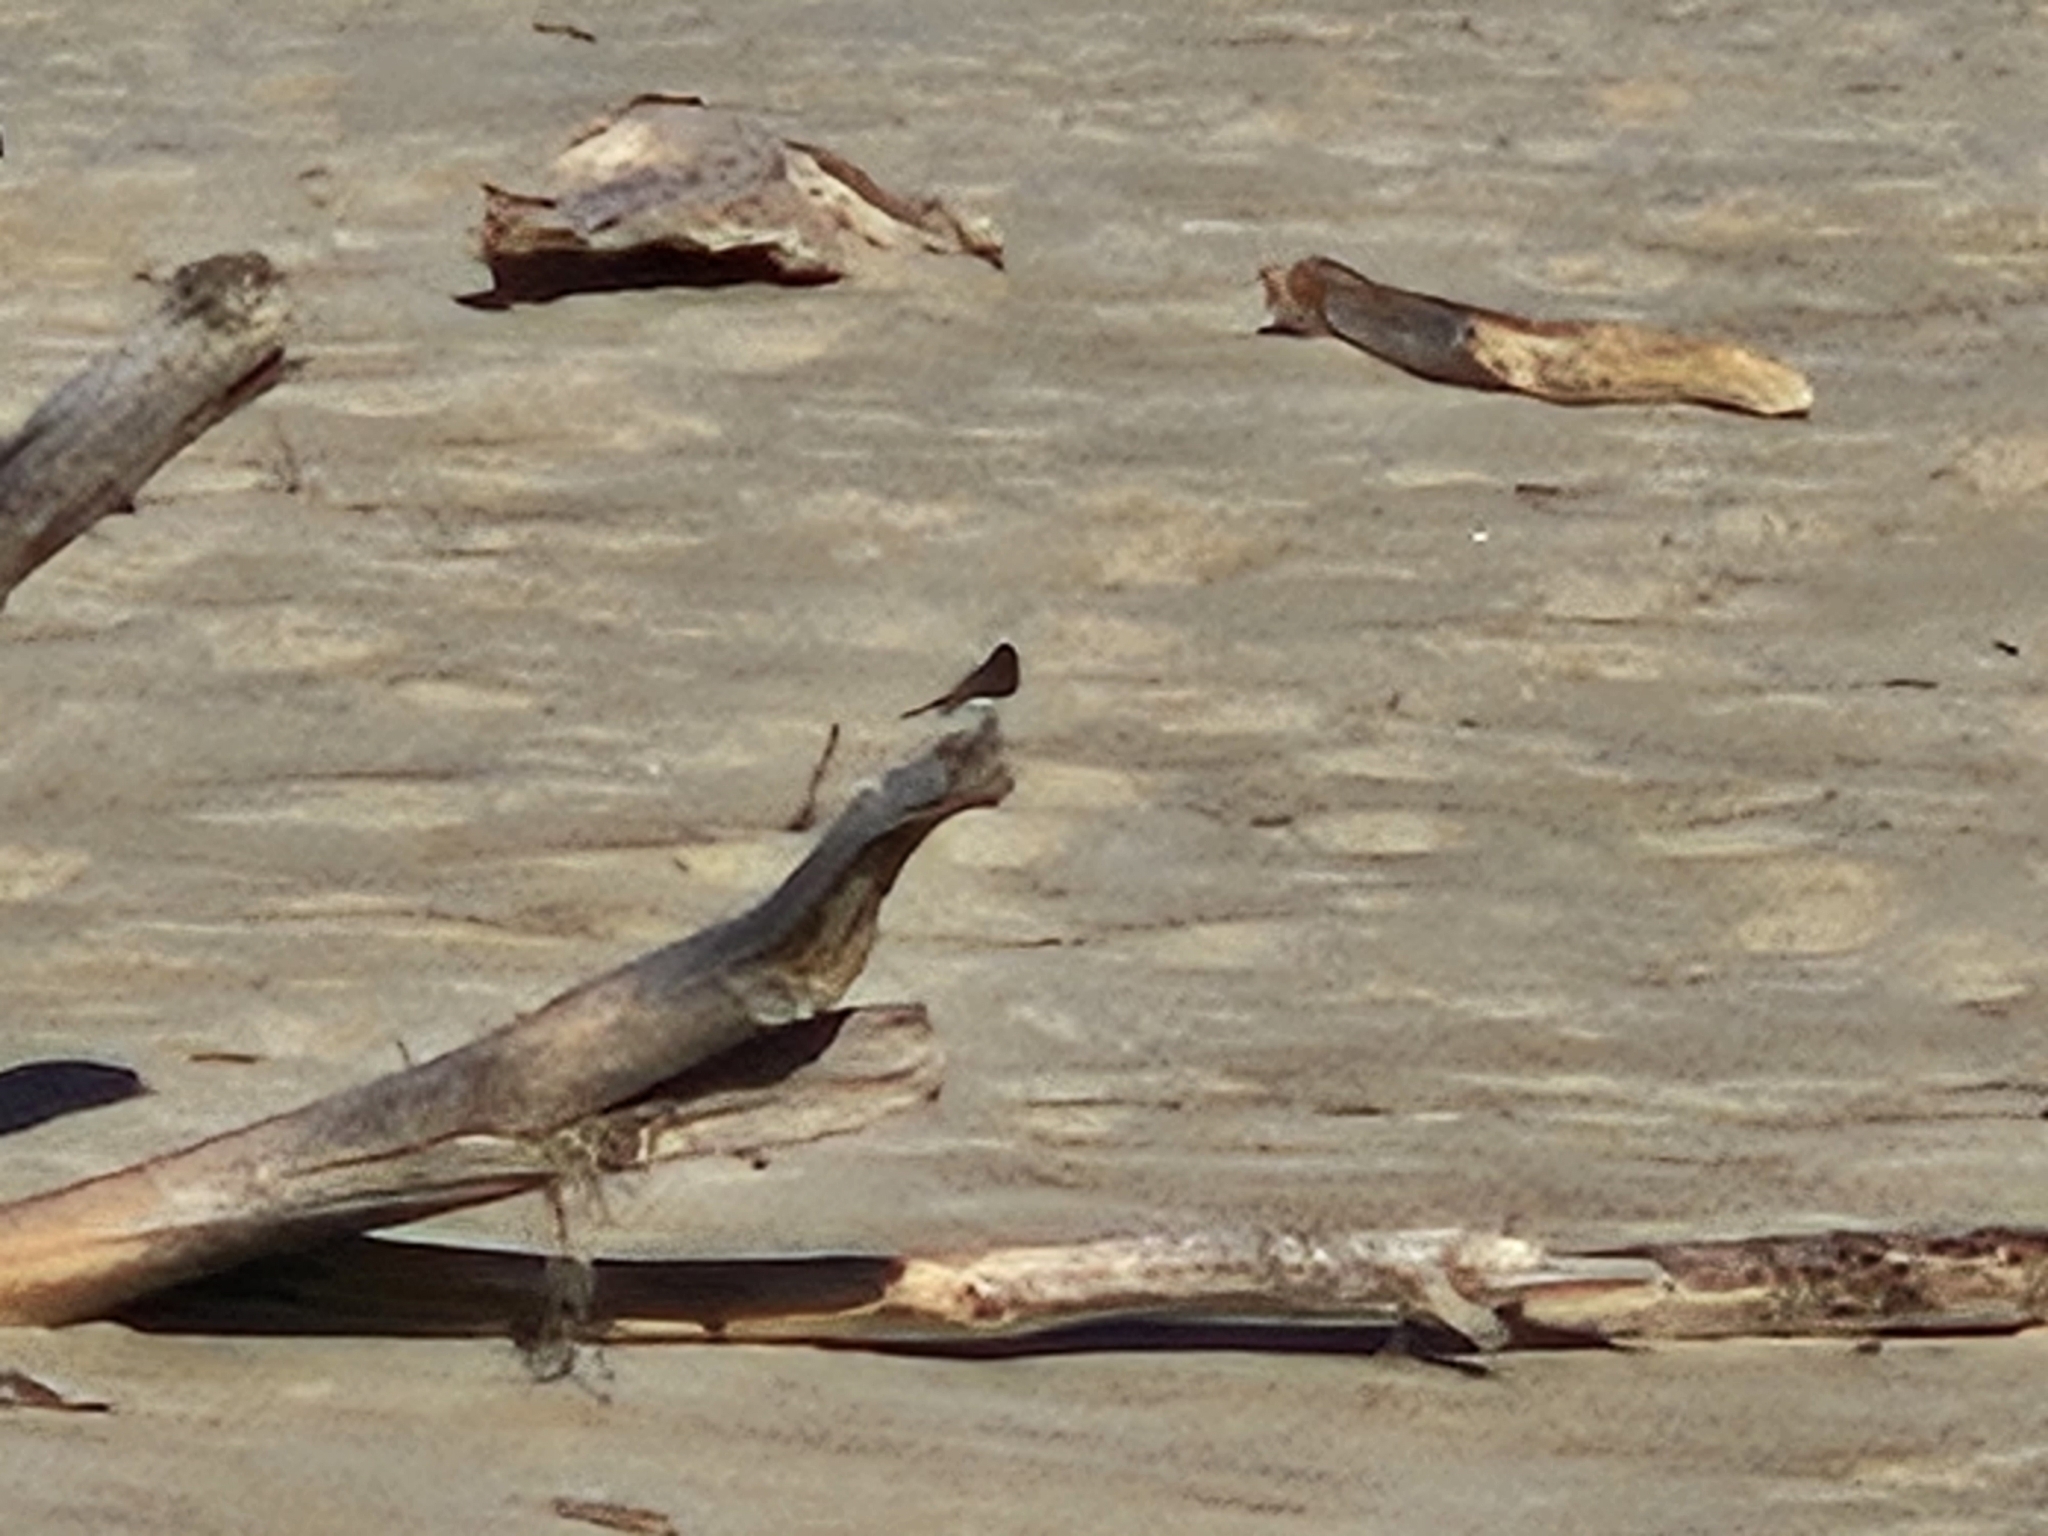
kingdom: Animalia
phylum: Chordata
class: Aves
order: Passeriformes
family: Tyrannidae
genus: Sayornis
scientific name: Sayornis nigricans
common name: Black phoebe
